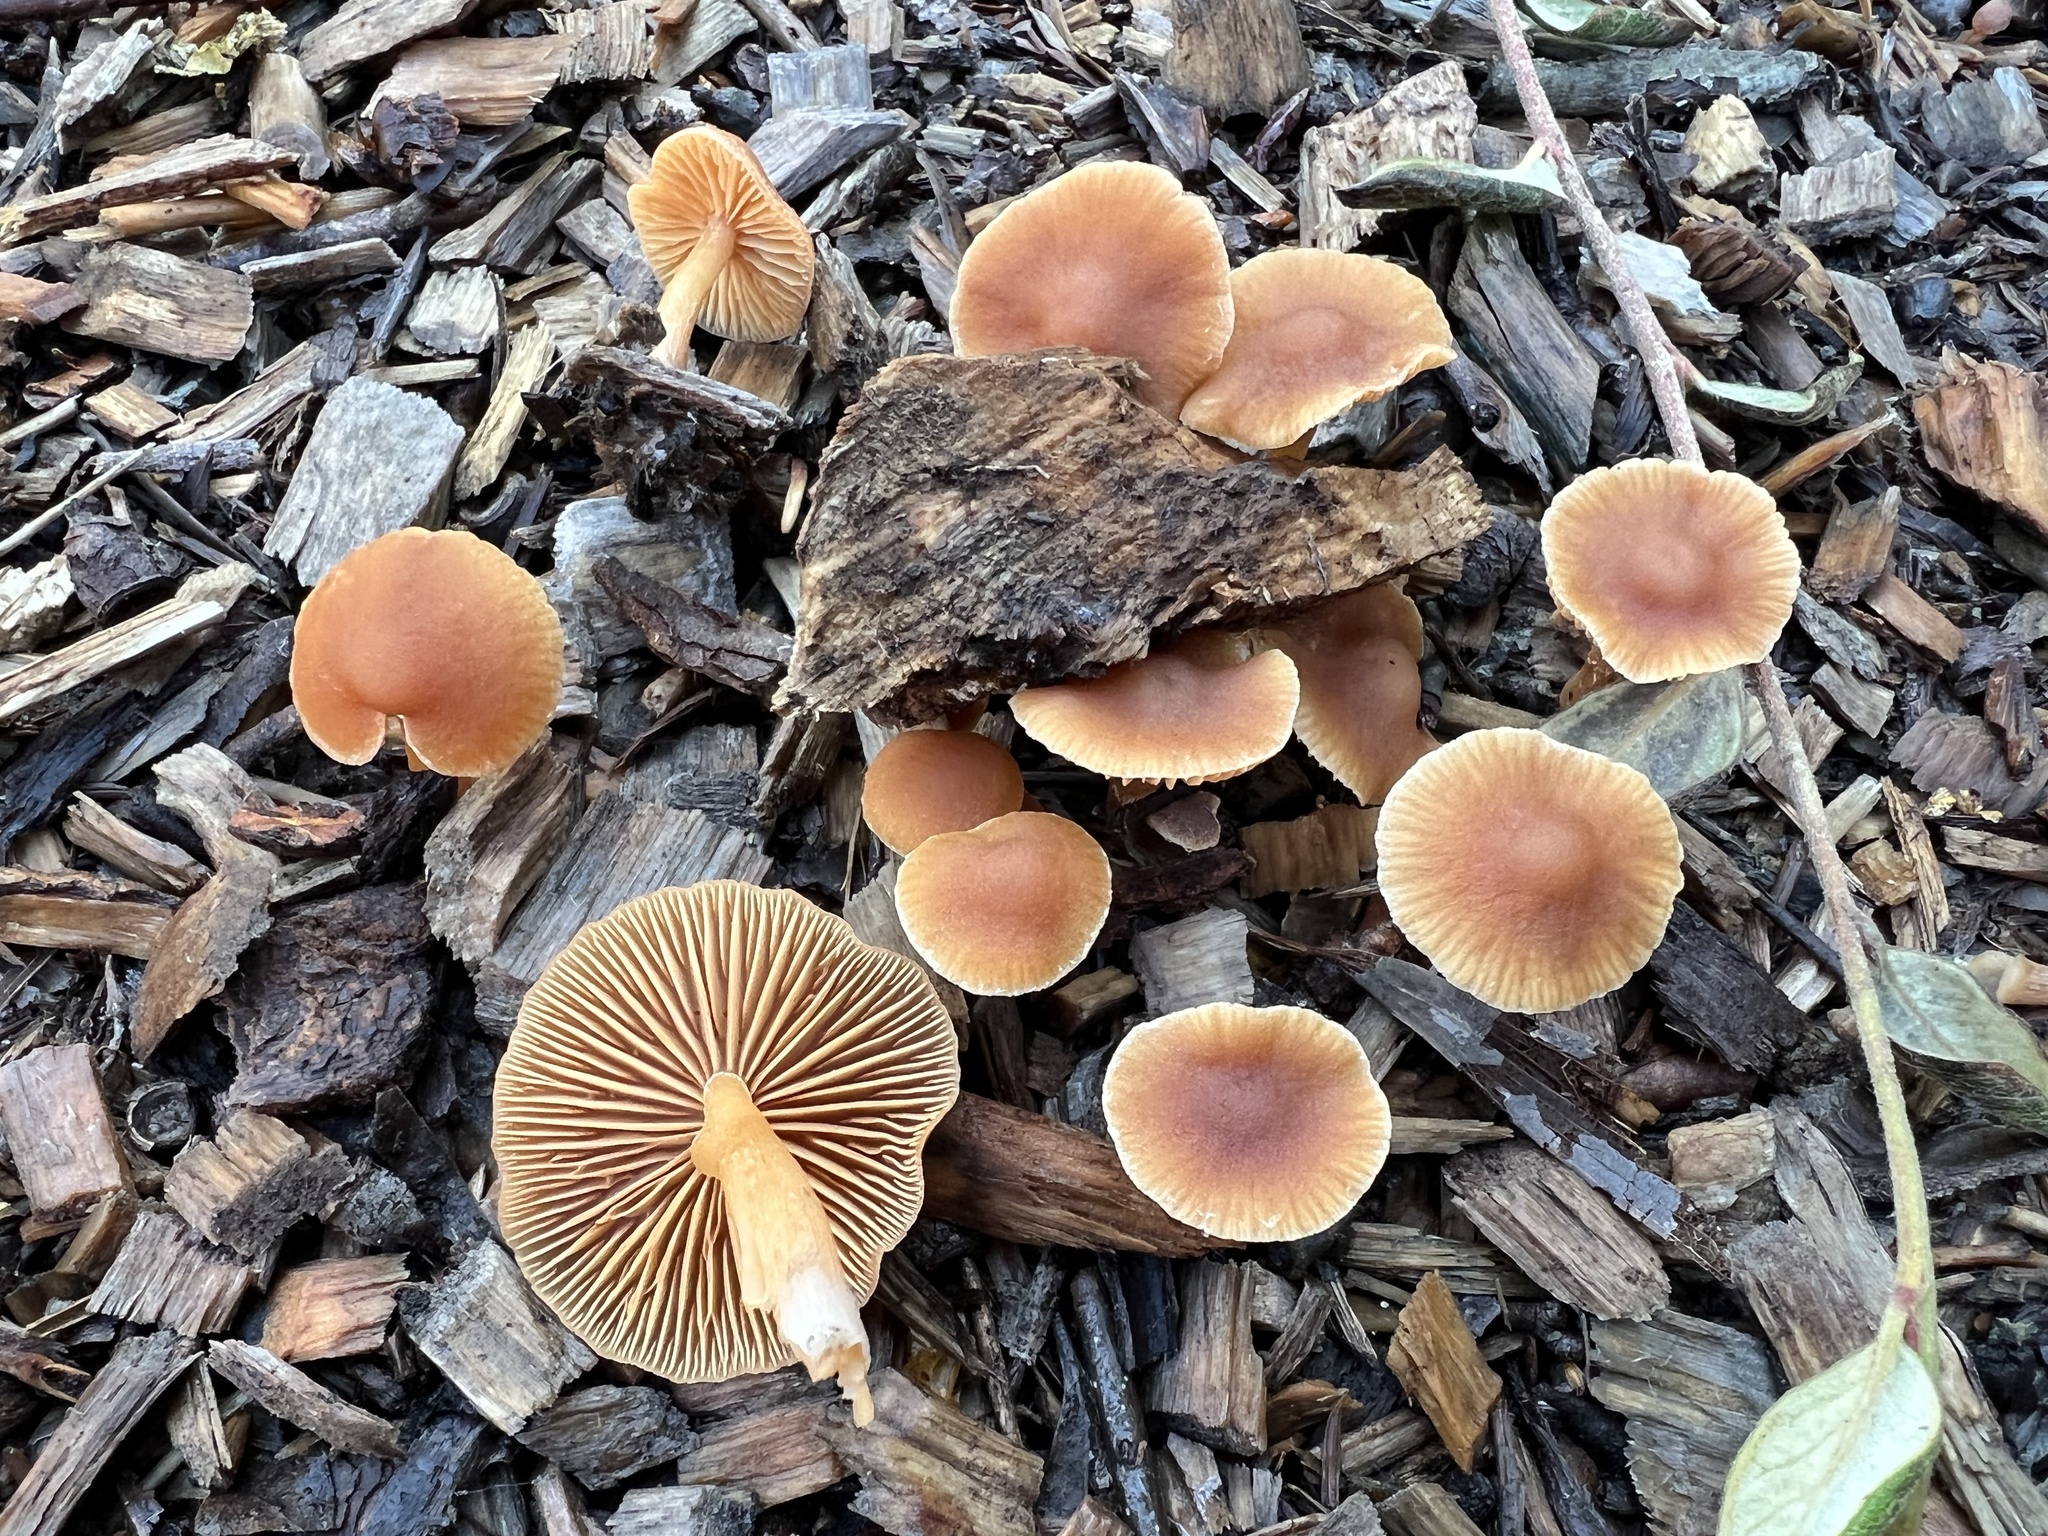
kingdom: Fungi
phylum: Basidiomycota
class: Agaricomycetes
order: Agaricales
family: Tubariaceae
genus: Tubaria
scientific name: Tubaria furfuracea
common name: Scurfy twiglet
